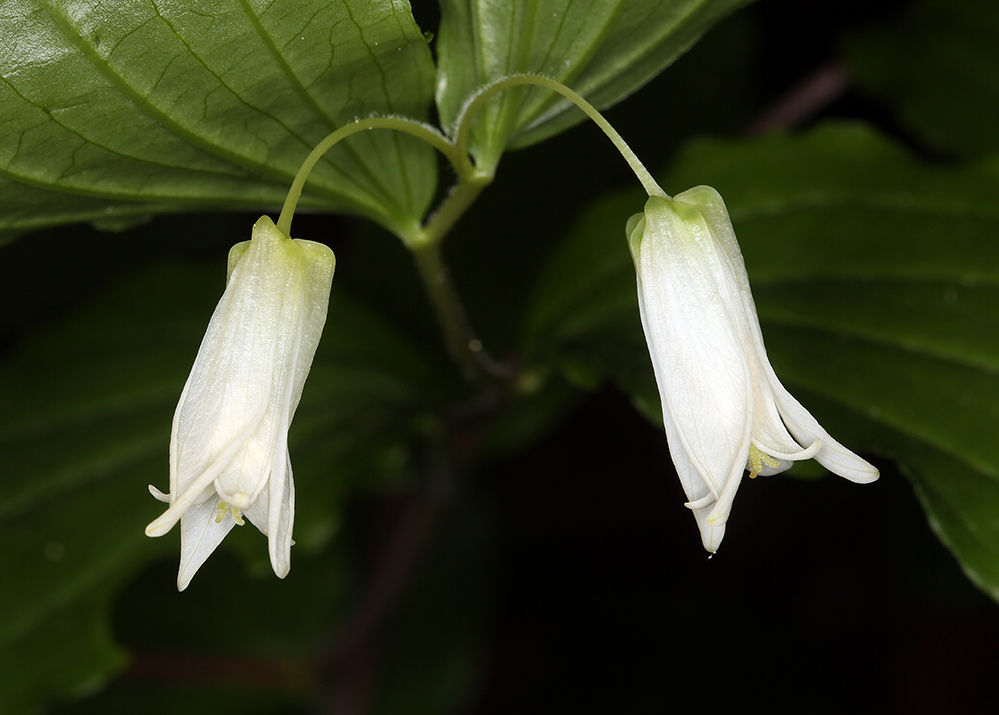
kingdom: Plantae
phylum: Tracheophyta
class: Liliopsida
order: Liliales
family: Liliaceae
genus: Prosartes
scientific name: Prosartes smithii
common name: Fairy-lantern
